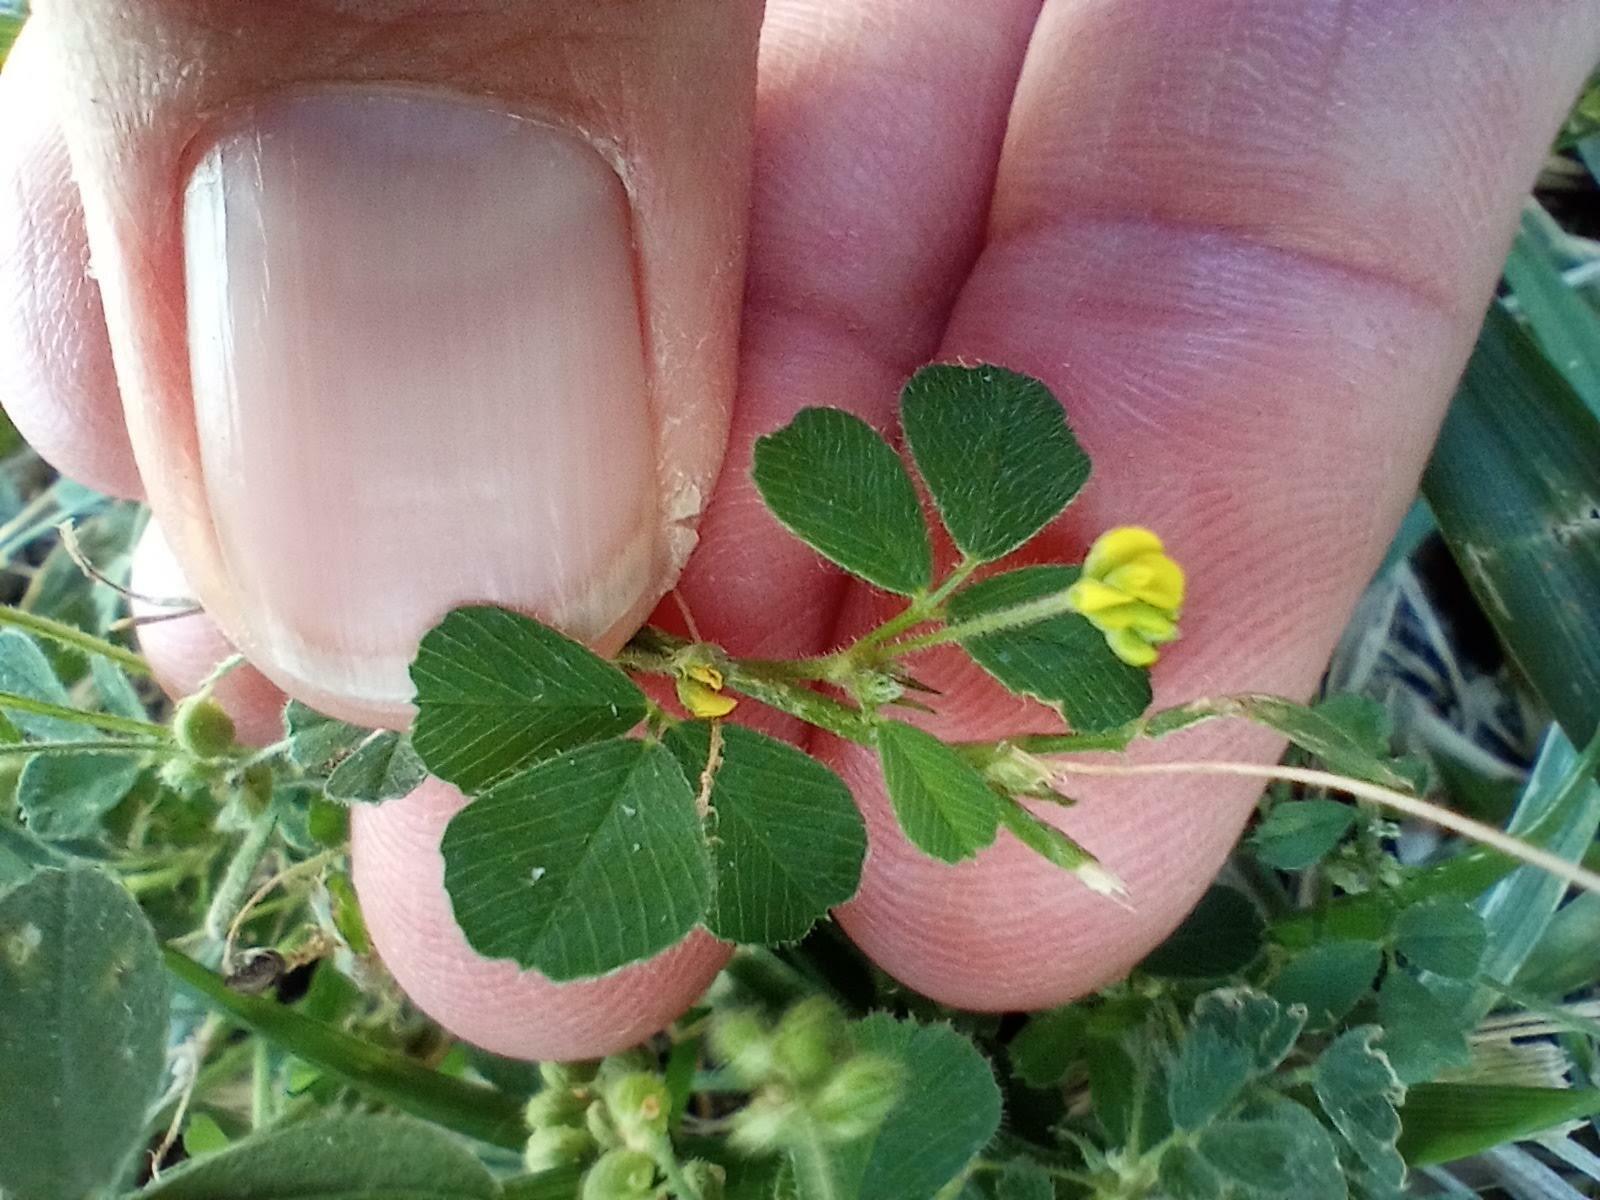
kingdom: Plantae
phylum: Tracheophyta
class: Magnoliopsida
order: Fabales
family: Fabaceae
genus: Medicago
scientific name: Medicago lupulina
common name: Black medick
